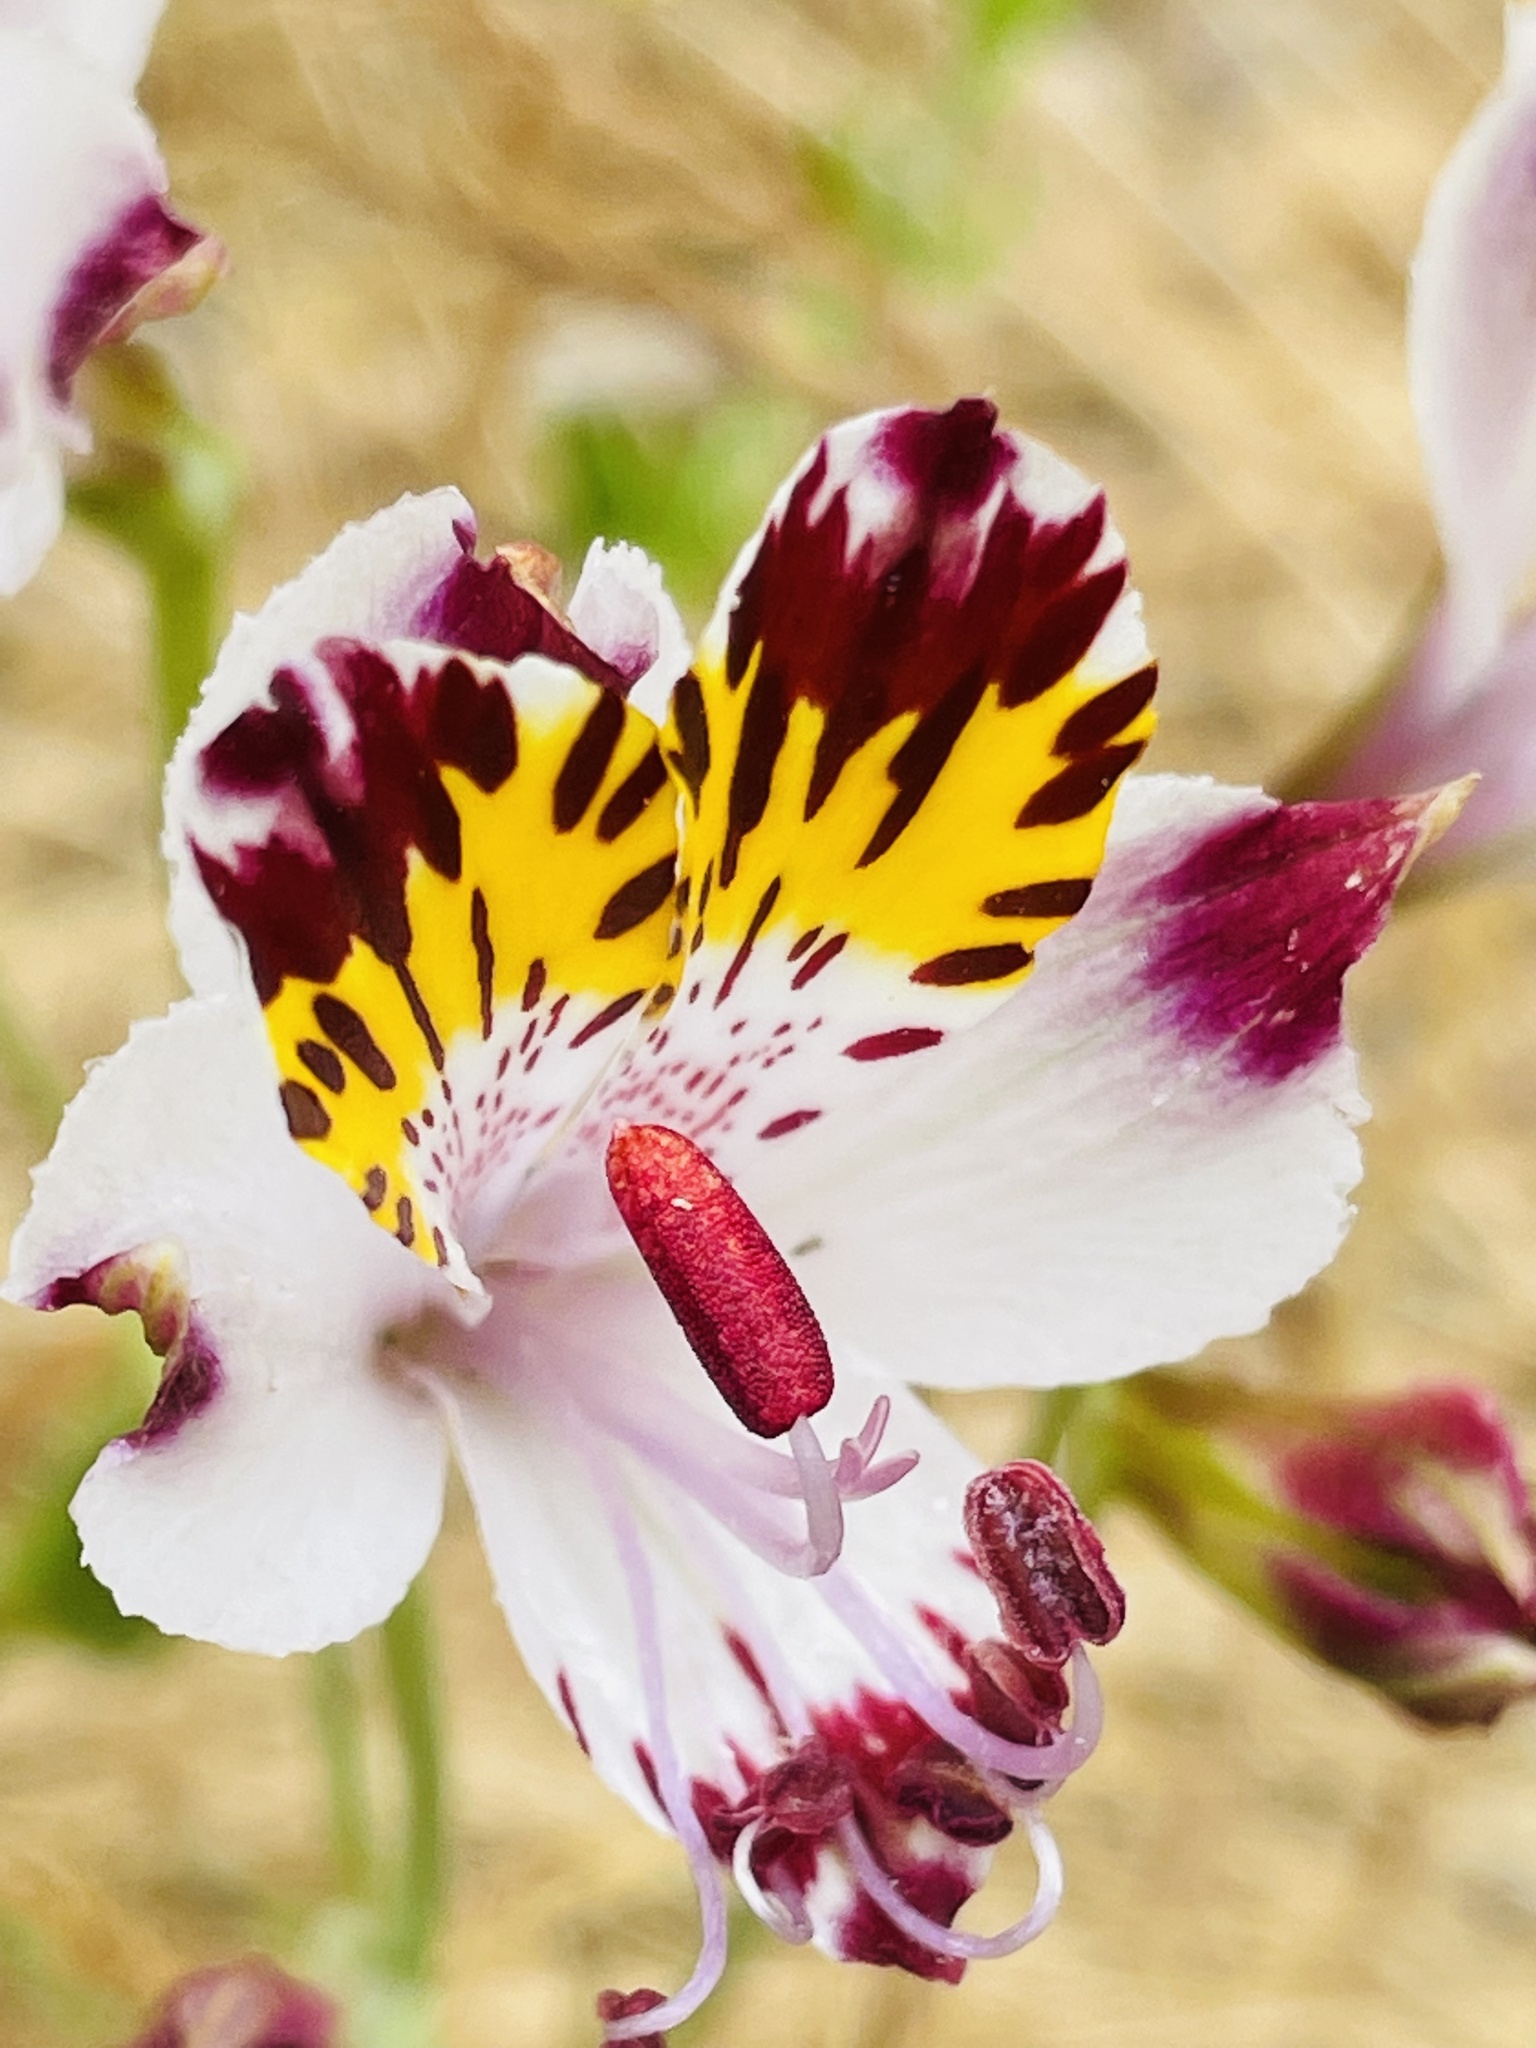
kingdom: Plantae
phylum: Tracheophyta
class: Liliopsida
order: Liliales
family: Alstroemeriaceae
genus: Alstroemeria
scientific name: Alstroemeria pulchra
